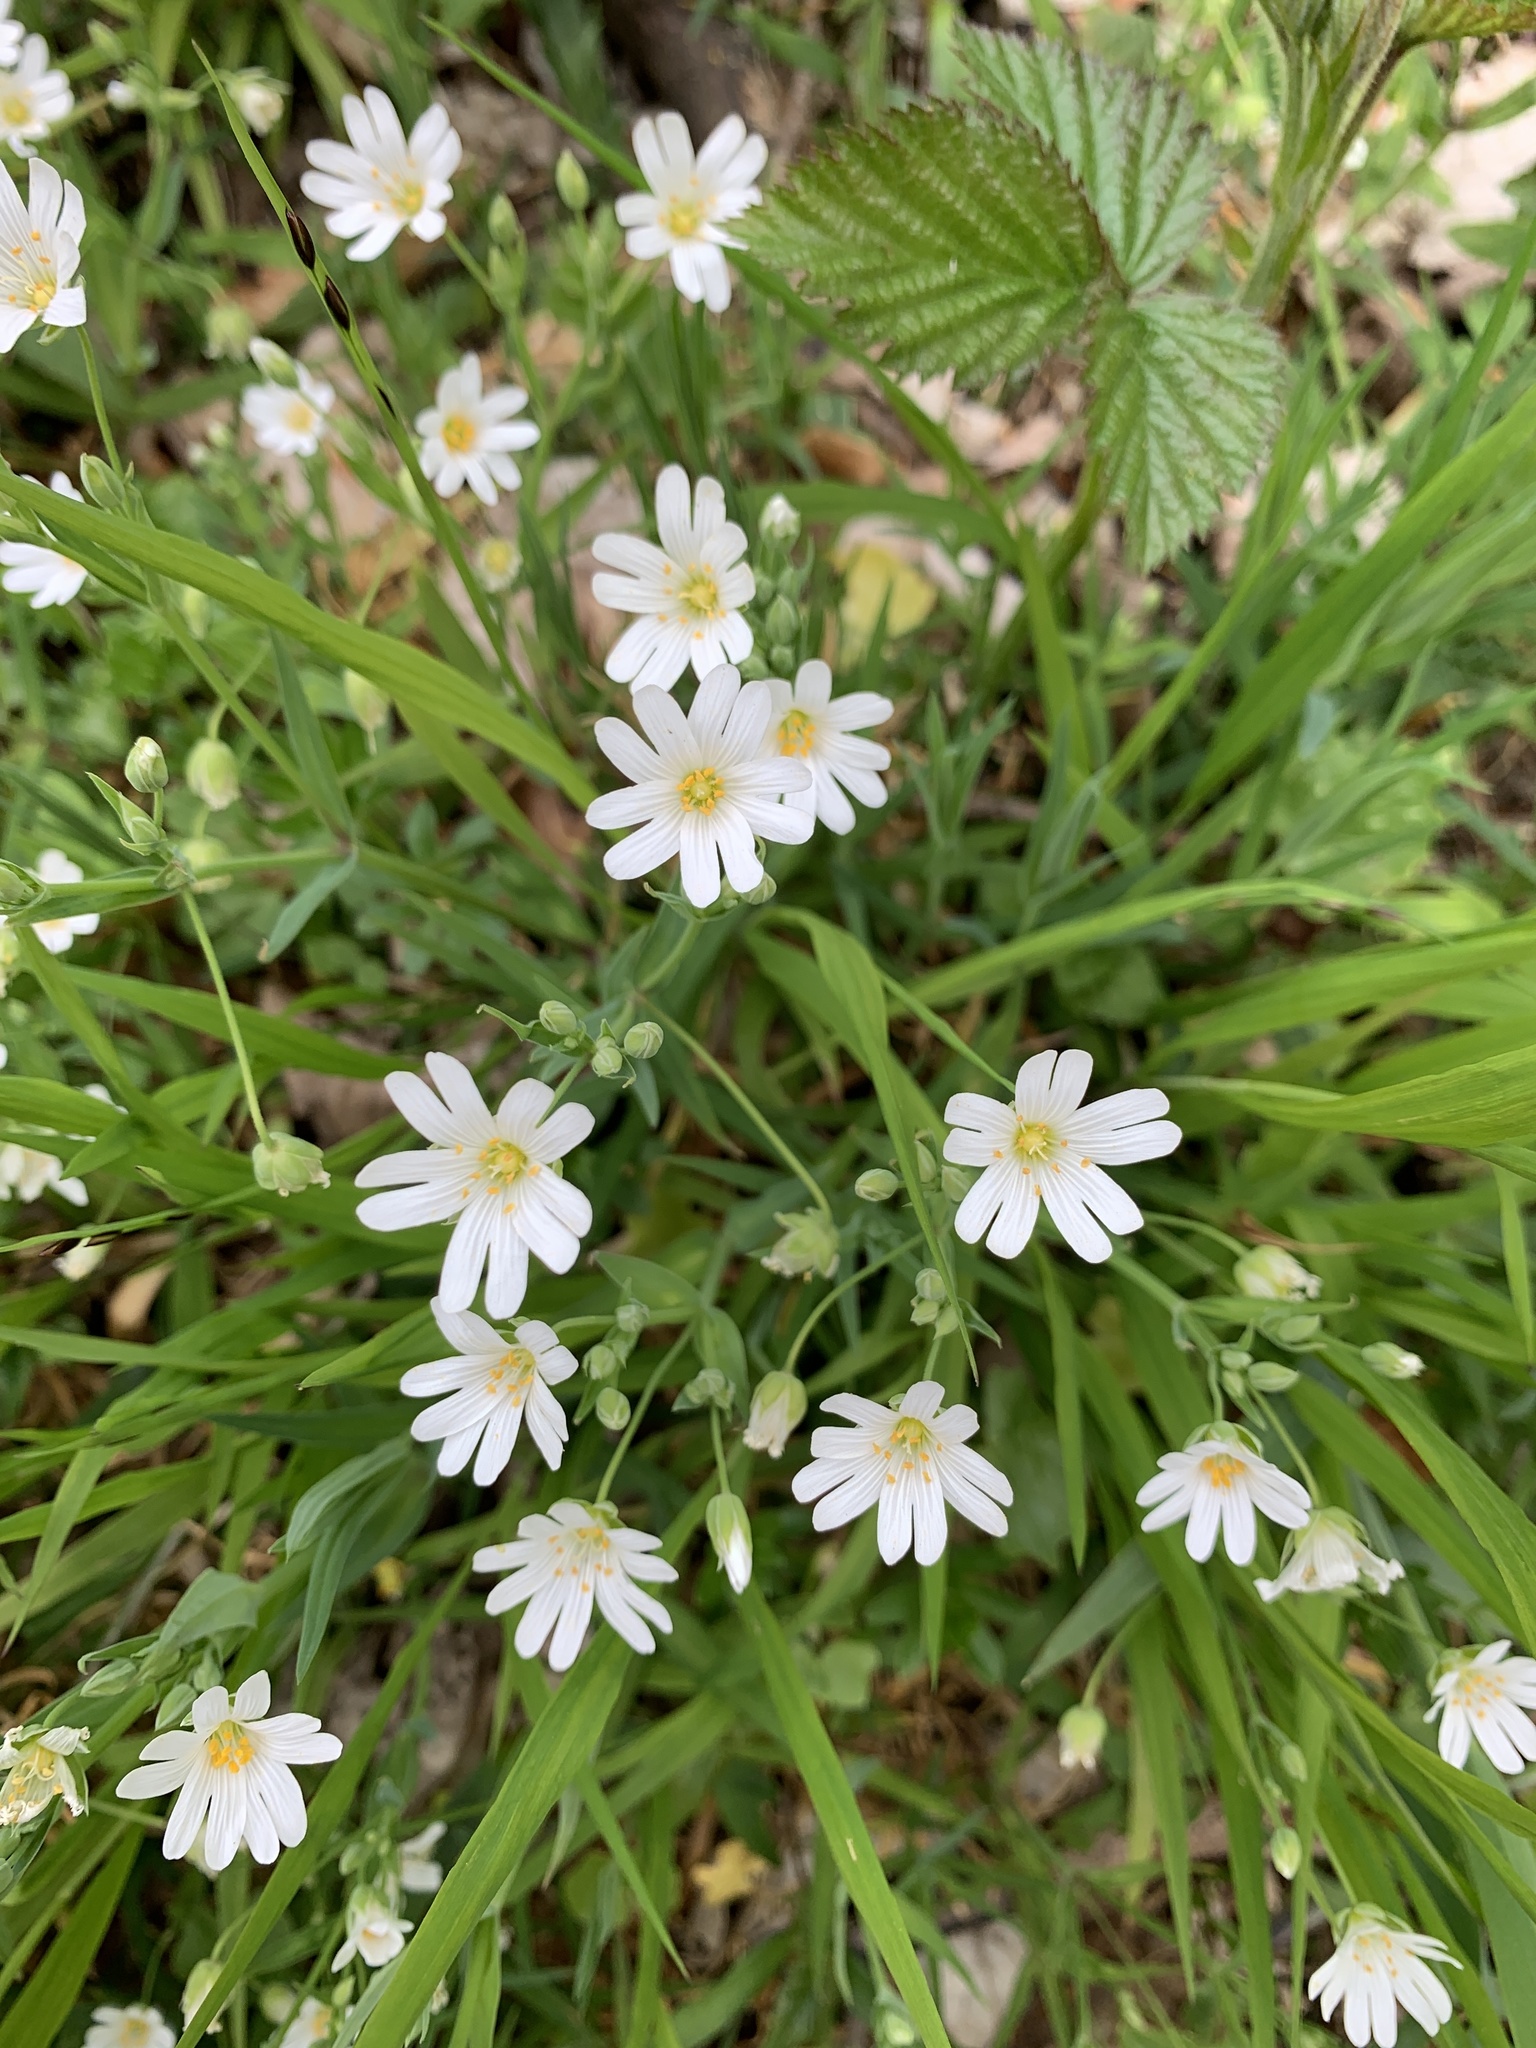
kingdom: Plantae
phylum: Tracheophyta
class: Magnoliopsida
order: Caryophyllales
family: Caryophyllaceae
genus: Rabelera
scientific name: Rabelera holostea
